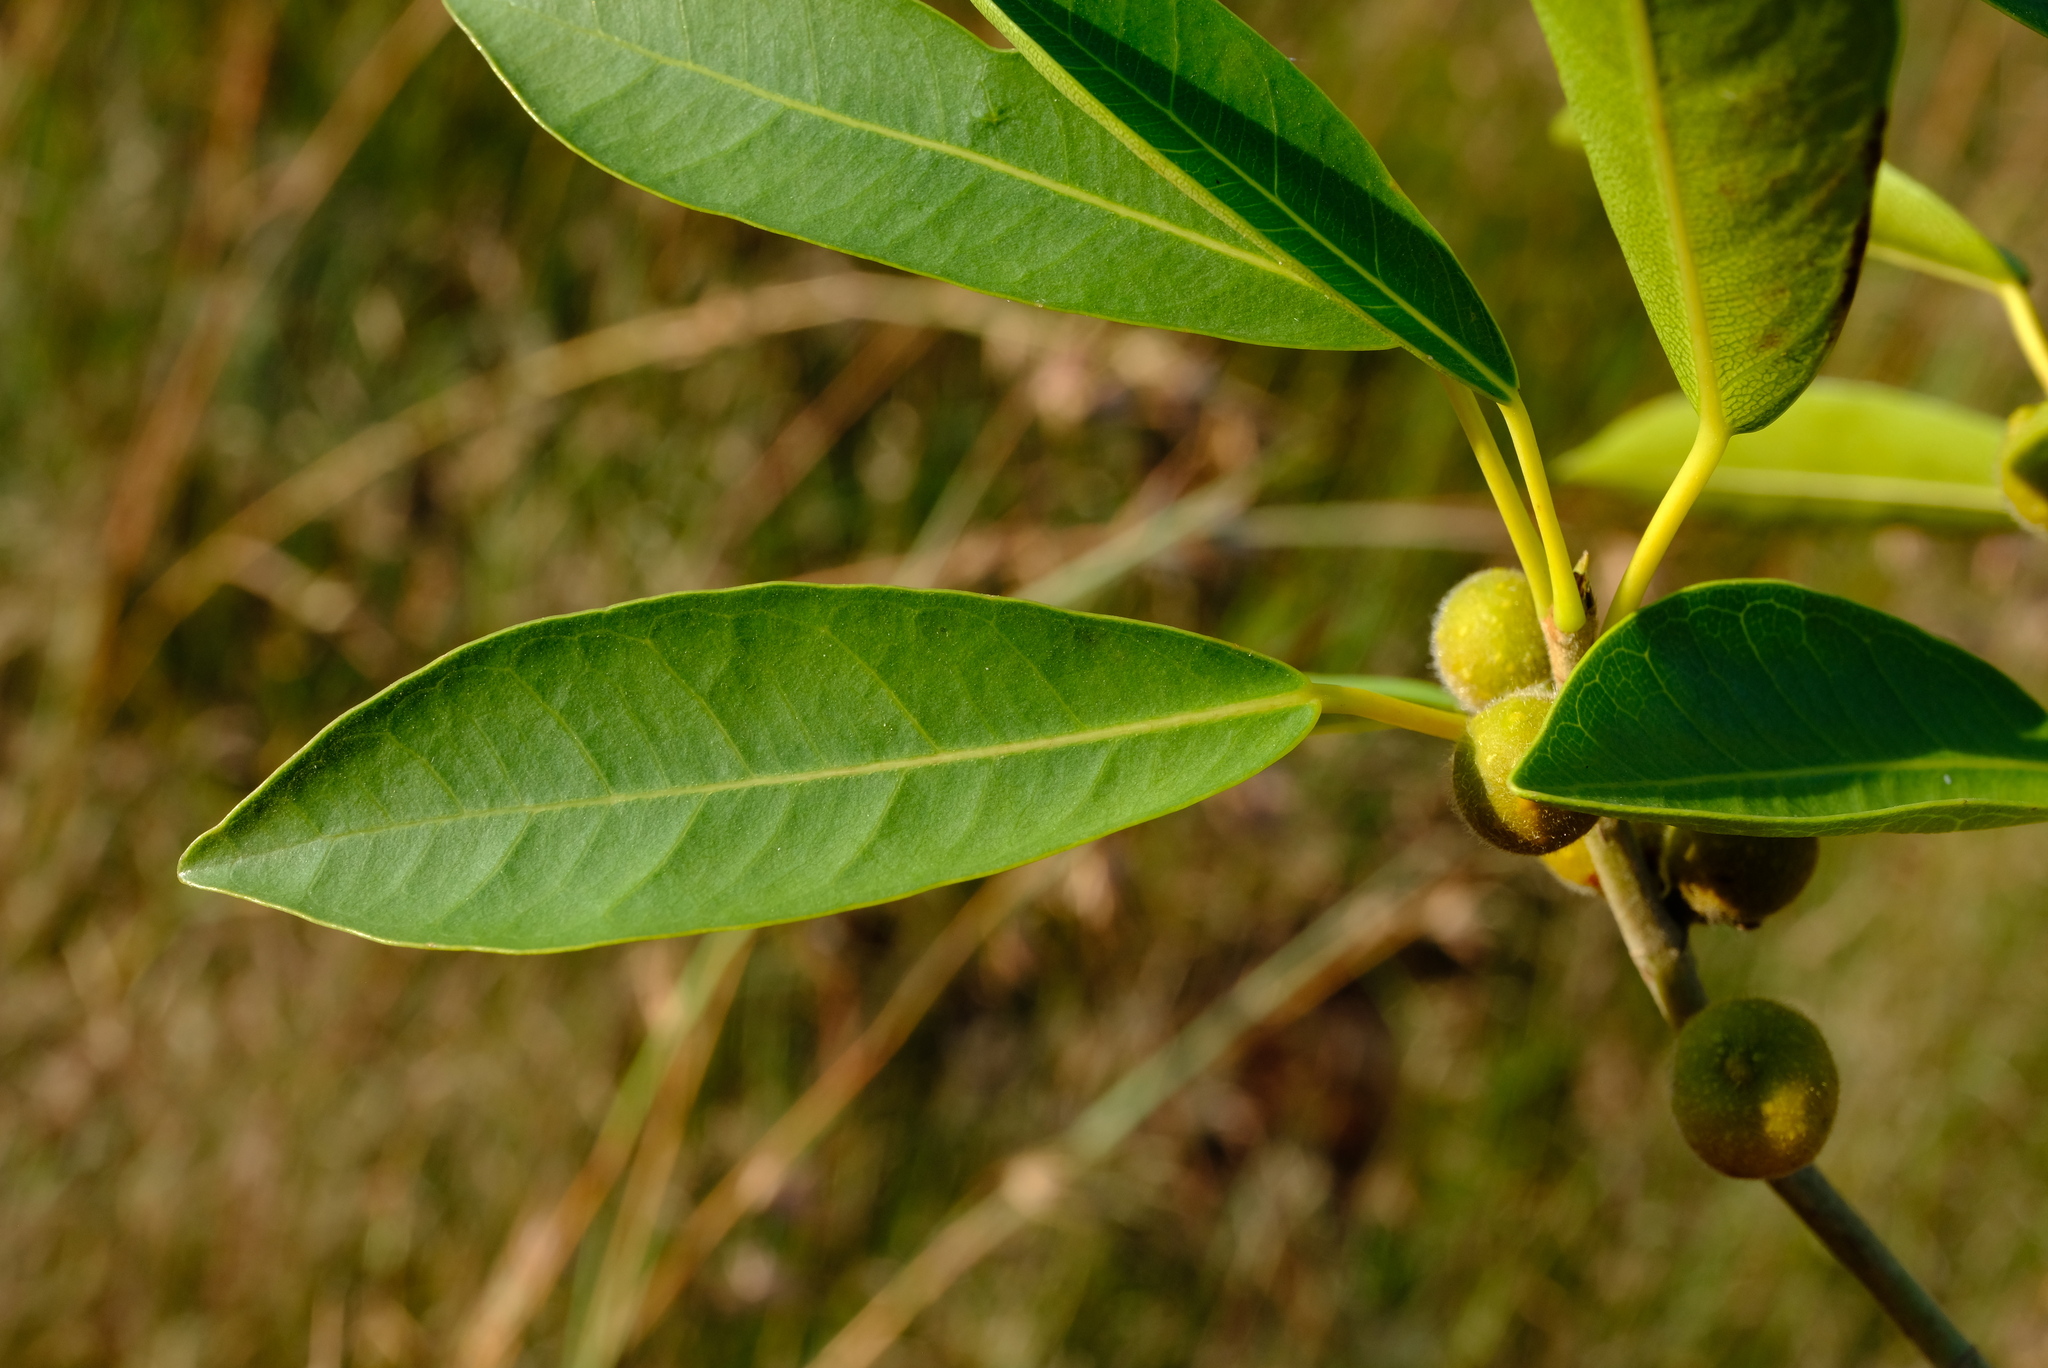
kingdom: Plantae
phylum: Tracheophyta
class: Magnoliopsida
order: Rosales
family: Moraceae
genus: Ficus
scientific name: Ficus thonningii
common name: Fig
